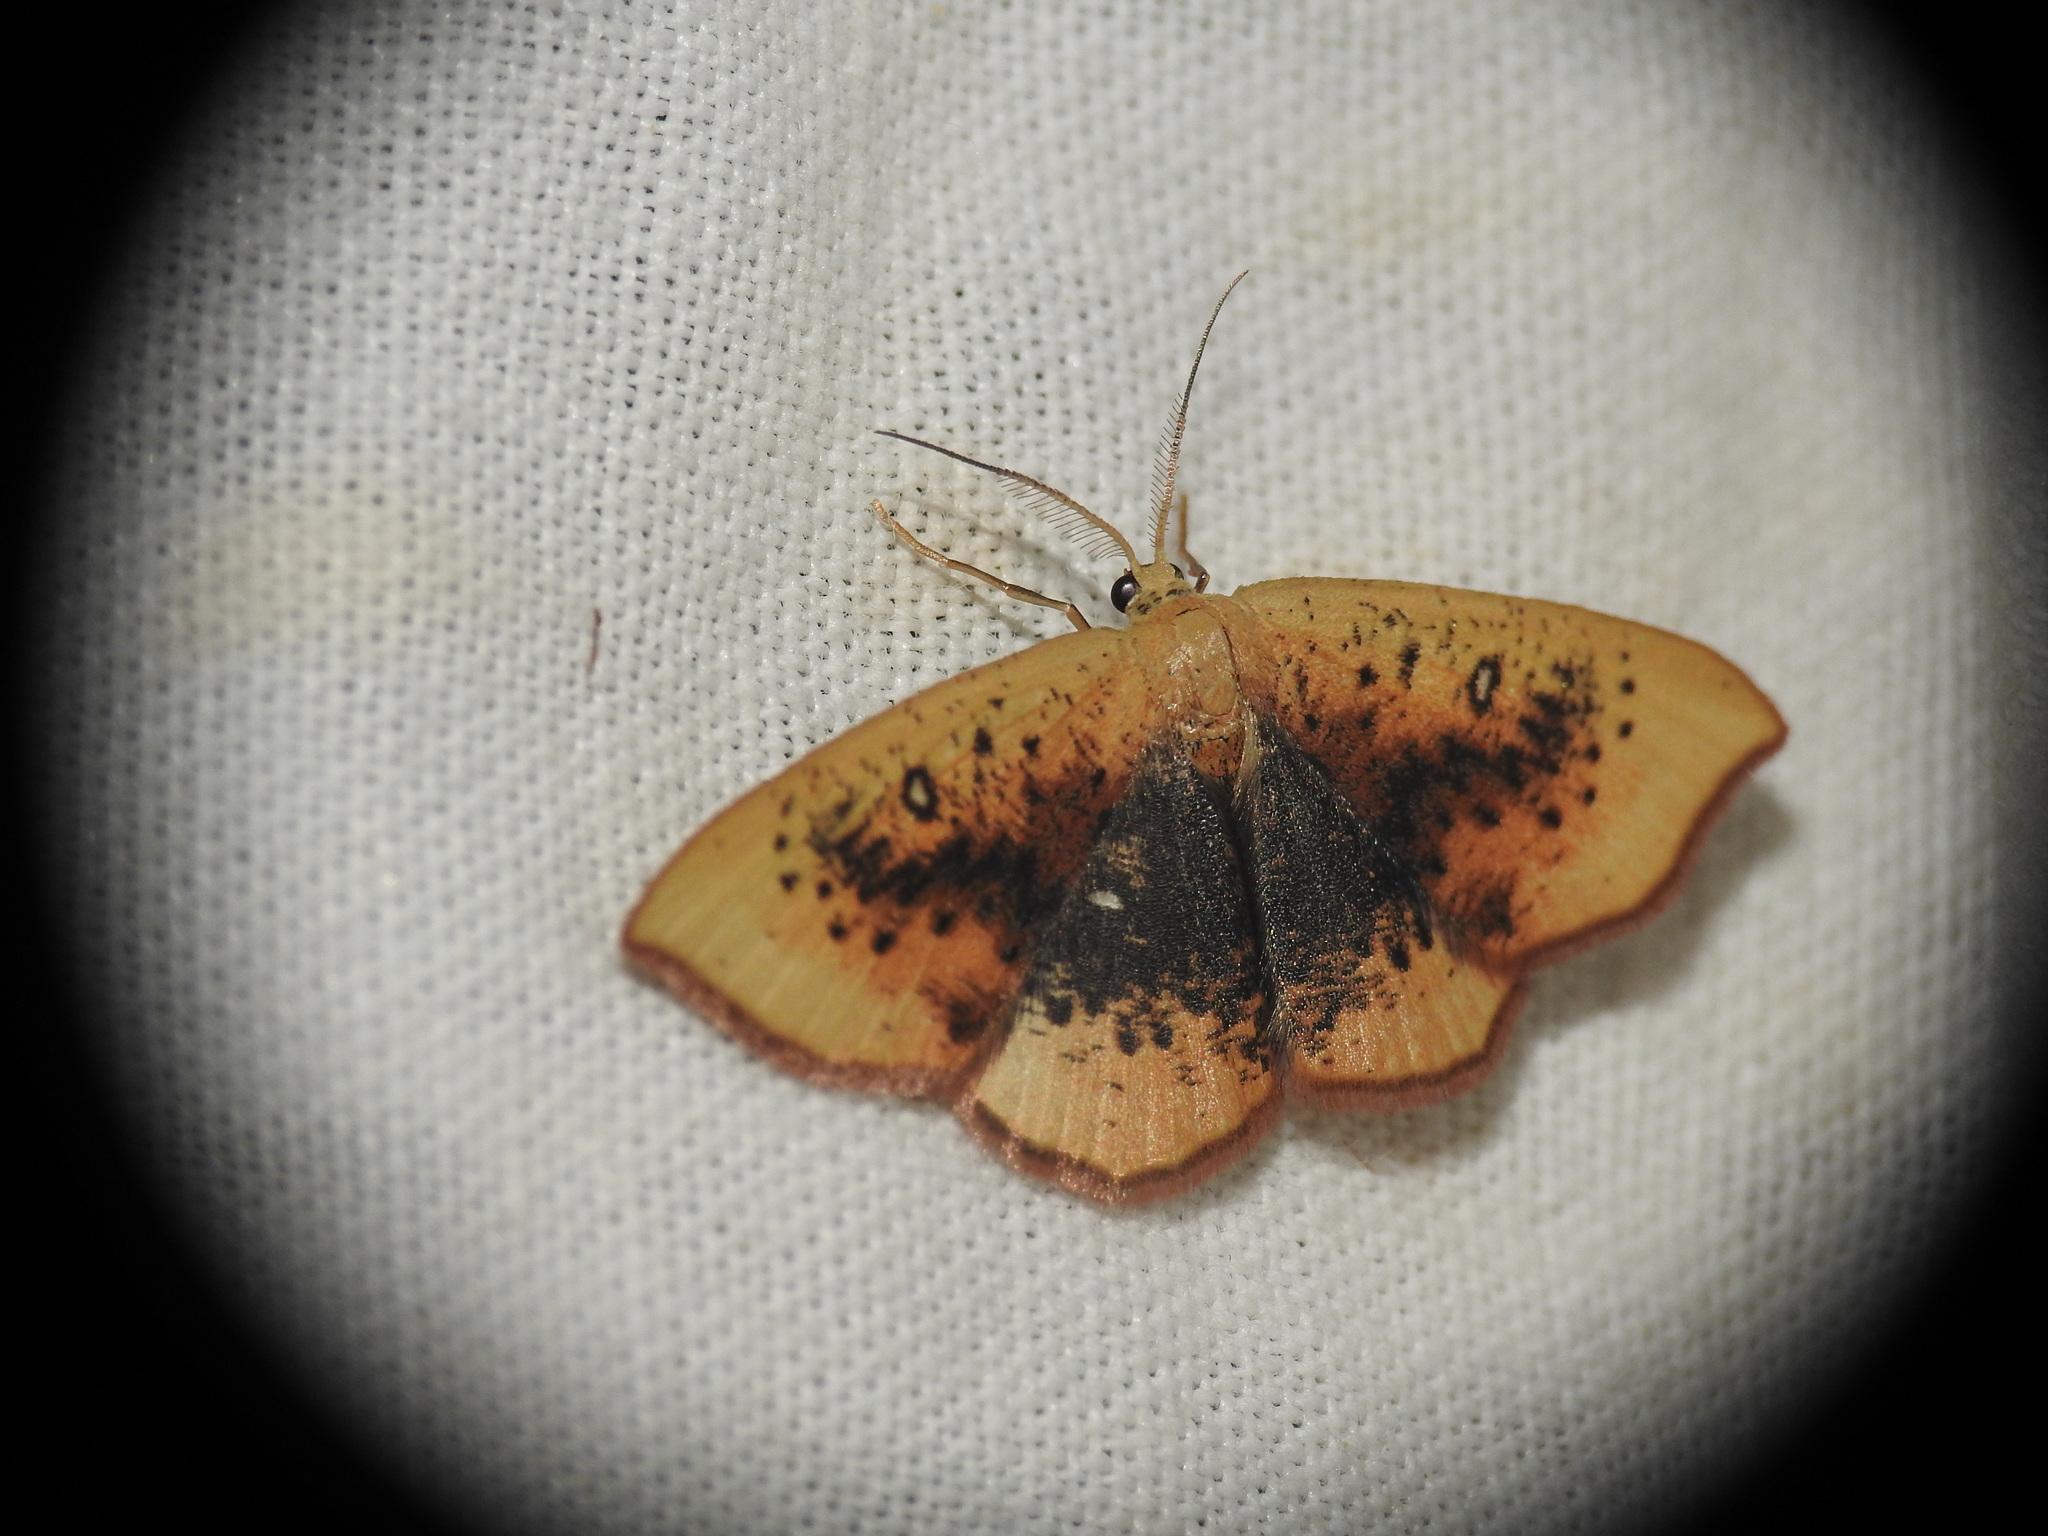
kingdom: Animalia
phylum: Arthropoda
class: Insecta
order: Lepidoptera
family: Geometridae
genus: Cyclophora
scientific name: Cyclophora lennigiaria
